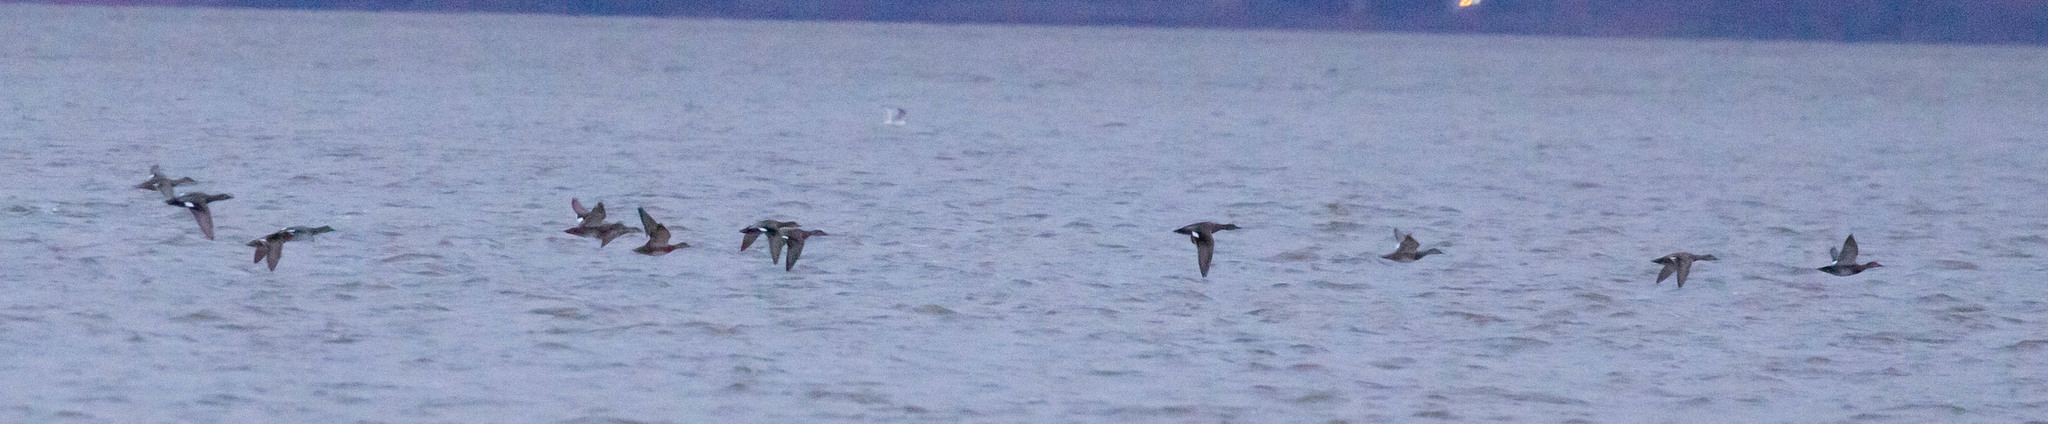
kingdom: Animalia
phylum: Chordata
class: Aves
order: Anseriformes
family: Anatidae
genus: Mareca
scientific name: Mareca strepera
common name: Gadwall
